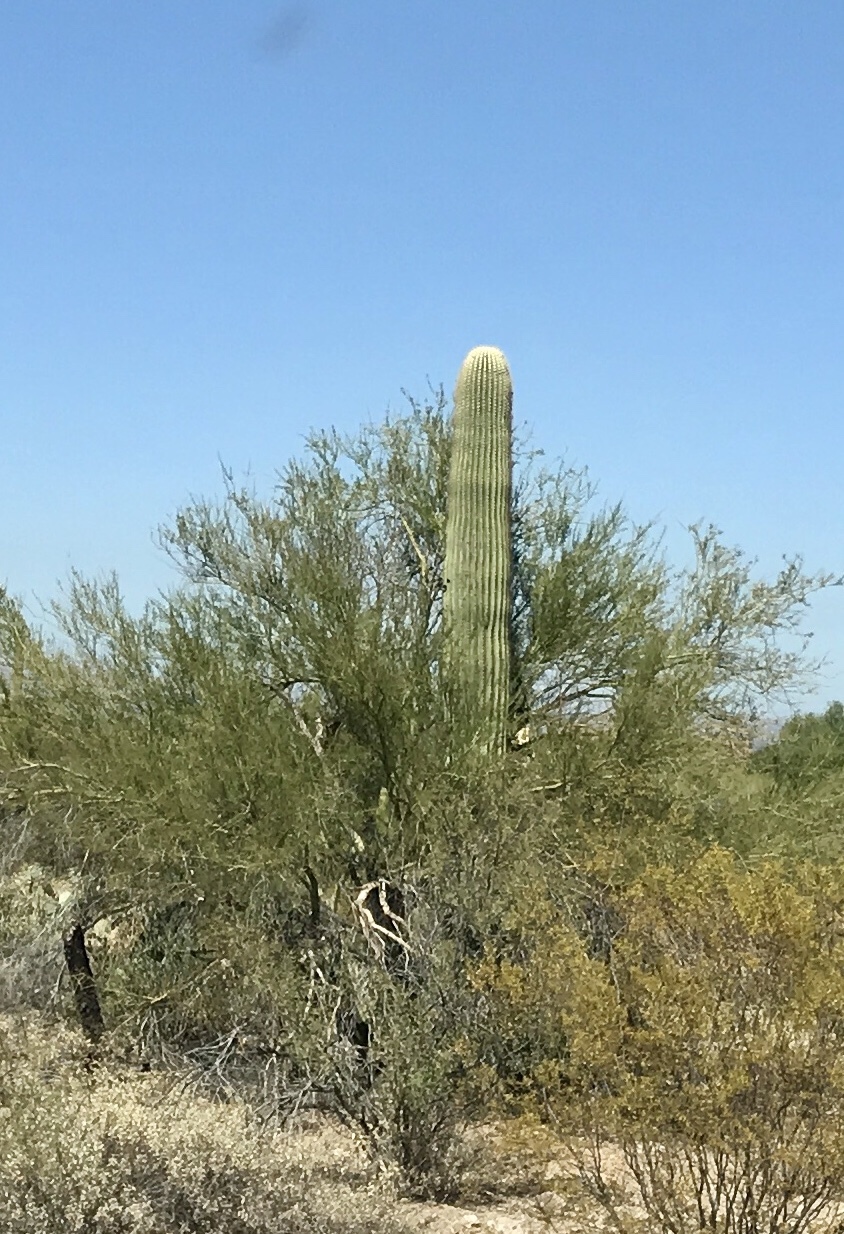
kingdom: Plantae
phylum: Tracheophyta
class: Magnoliopsida
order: Caryophyllales
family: Cactaceae
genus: Carnegiea
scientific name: Carnegiea gigantea
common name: Saguaro
